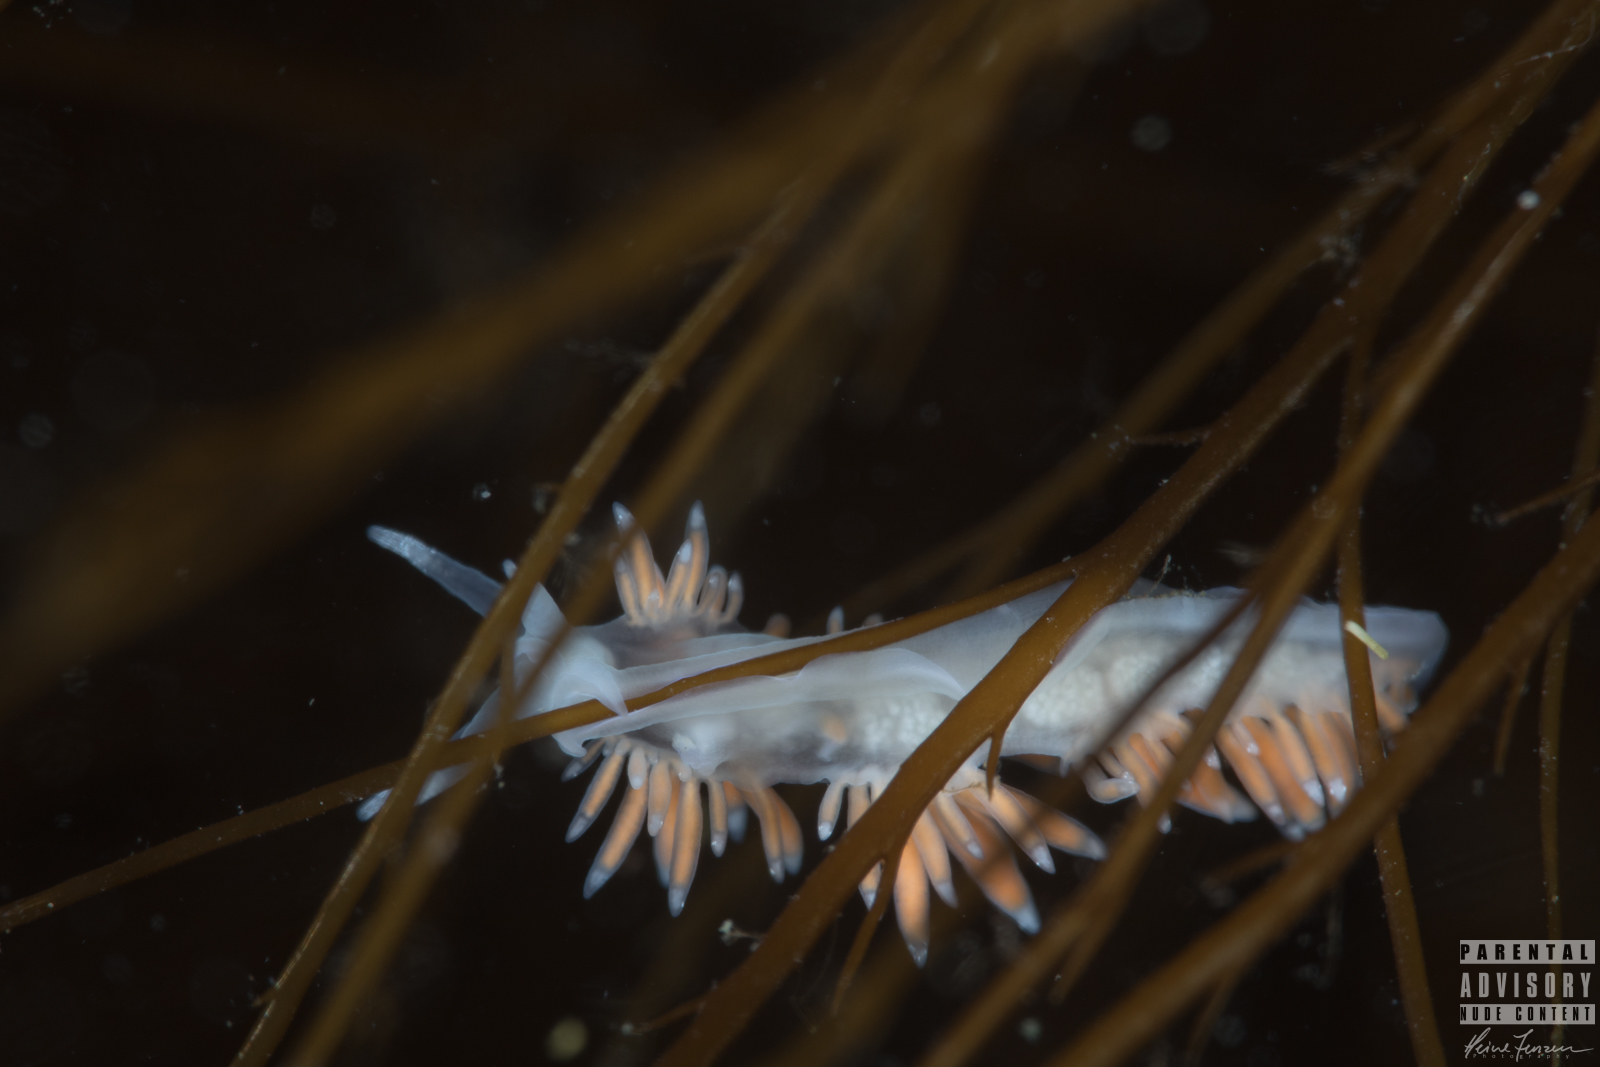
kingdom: Animalia
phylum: Mollusca
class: Gastropoda
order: Nudibranchia
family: Coryphellidae
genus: Coryphella
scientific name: Coryphella gracilis
